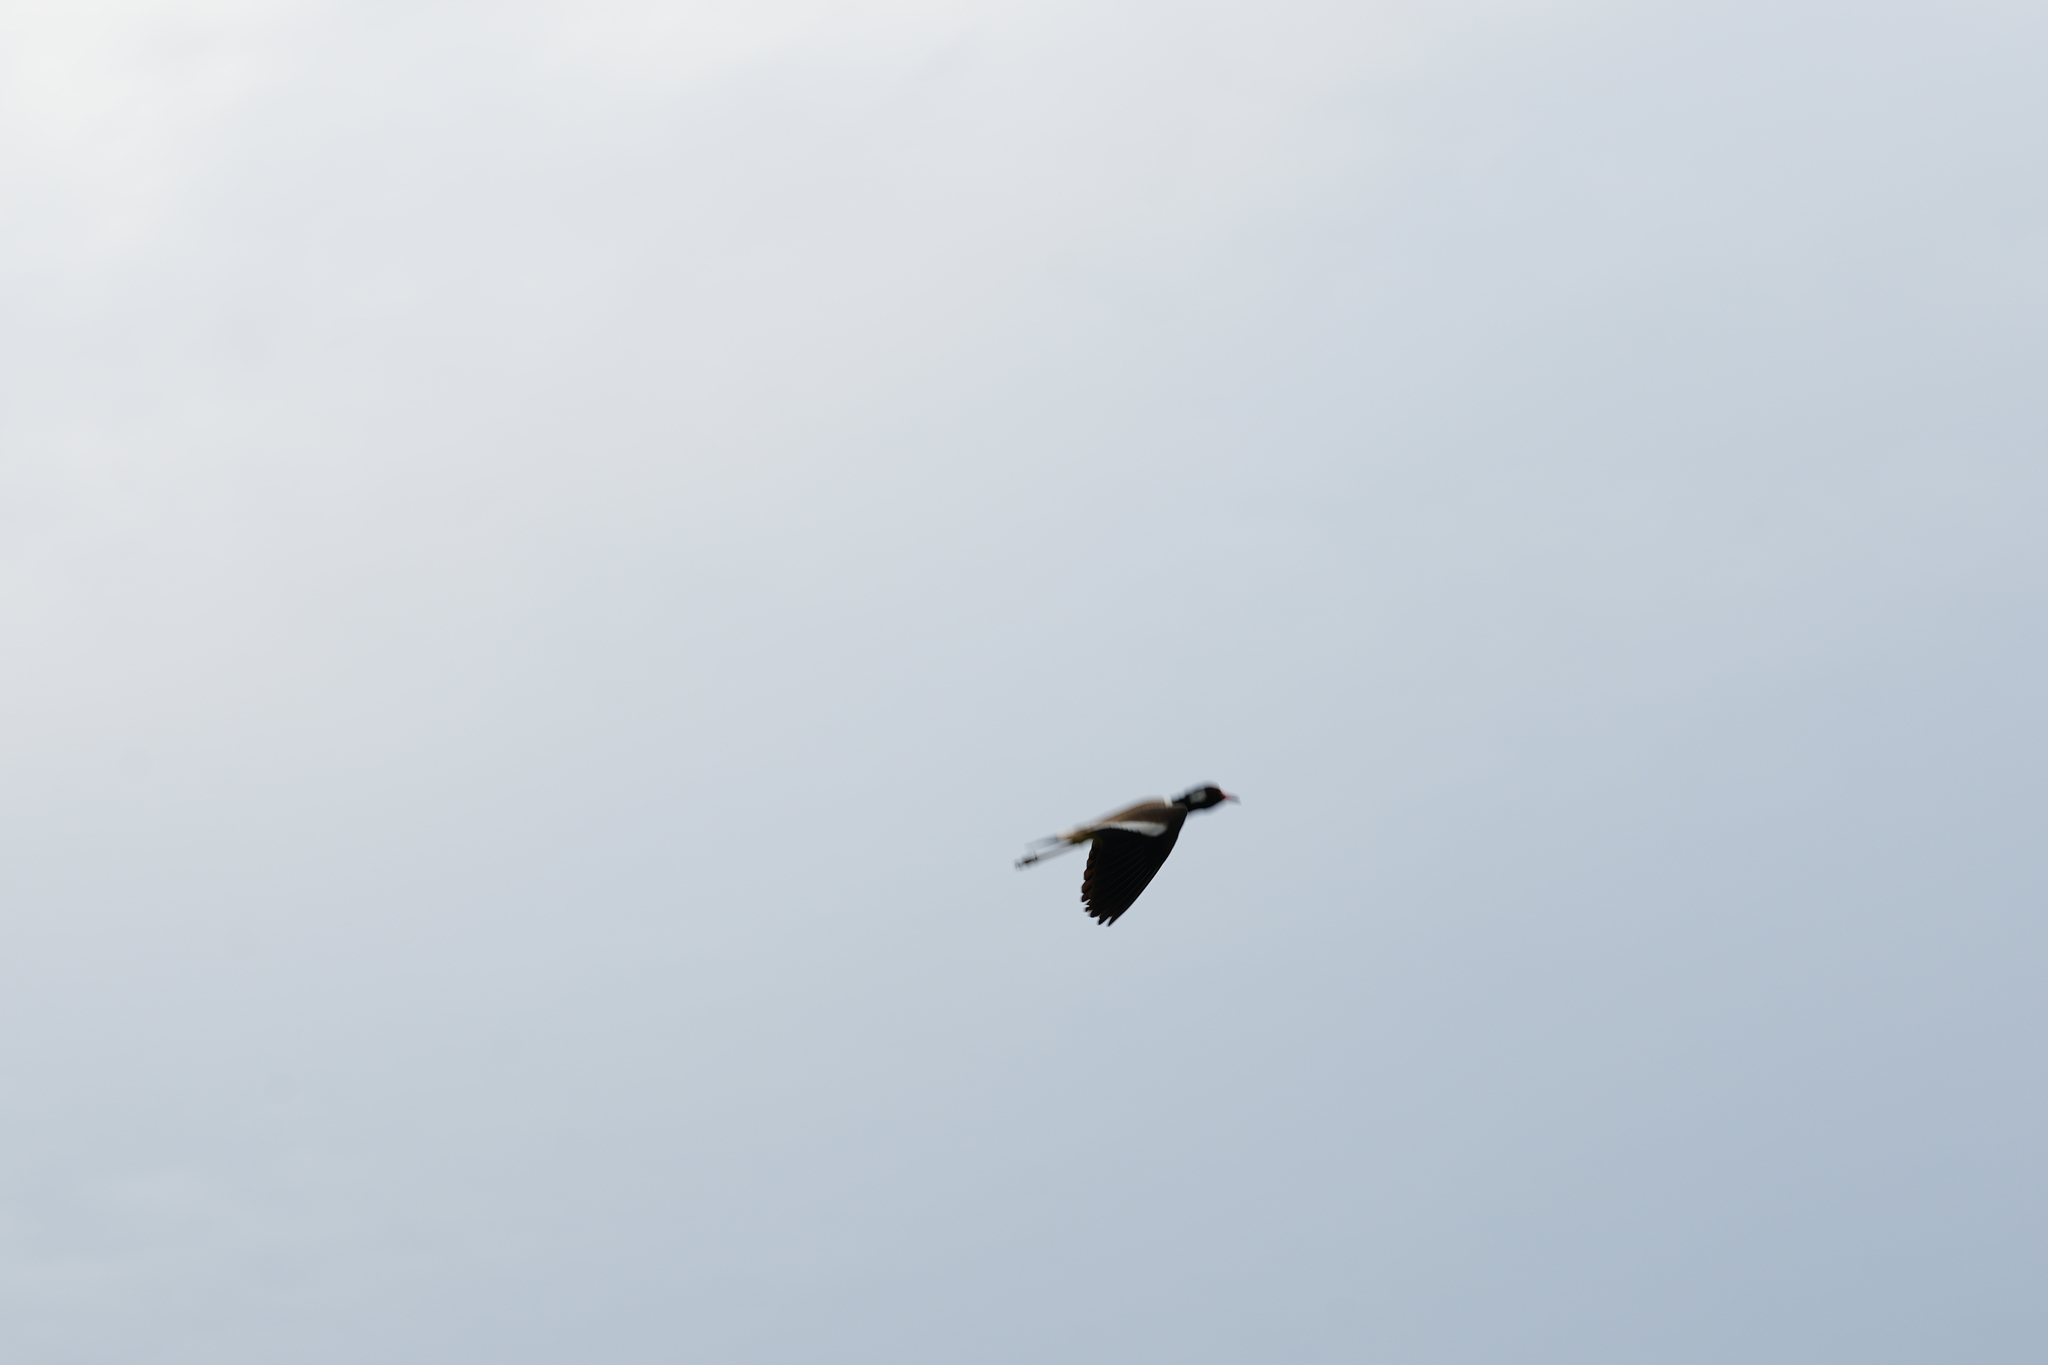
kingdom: Animalia
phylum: Chordata
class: Aves
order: Charadriiformes
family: Charadriidae
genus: Vanellus
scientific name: Vanellus indicus
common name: Red-wattled lapwing
